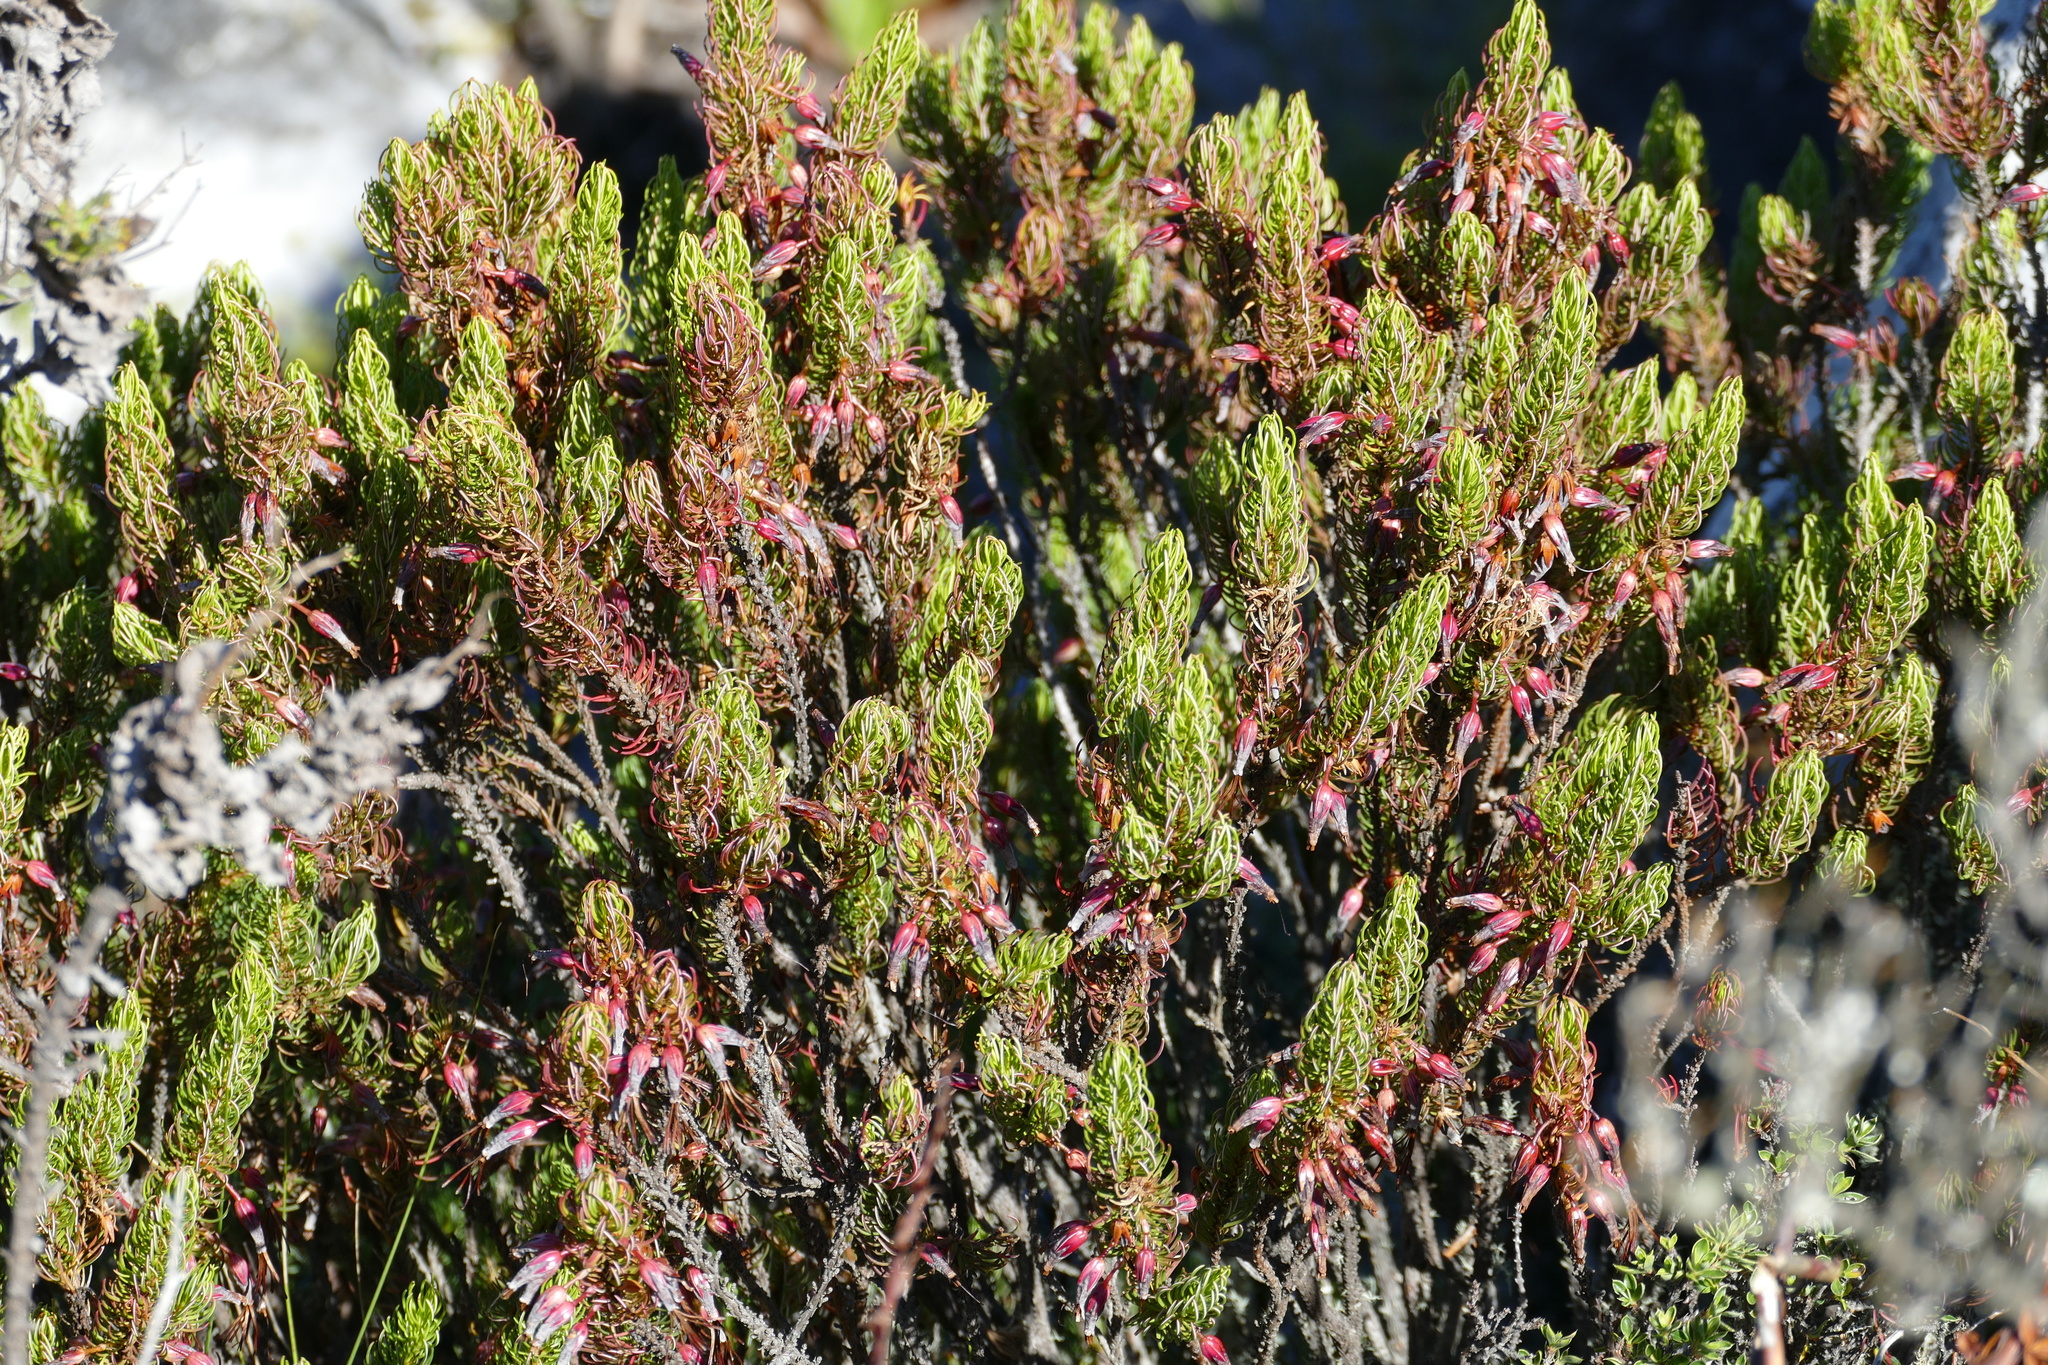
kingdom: Plantae
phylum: Tracheophyta
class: Magnoliopsida
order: Ericales
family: Ericaceae
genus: Erica
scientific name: Erica plukenetii
